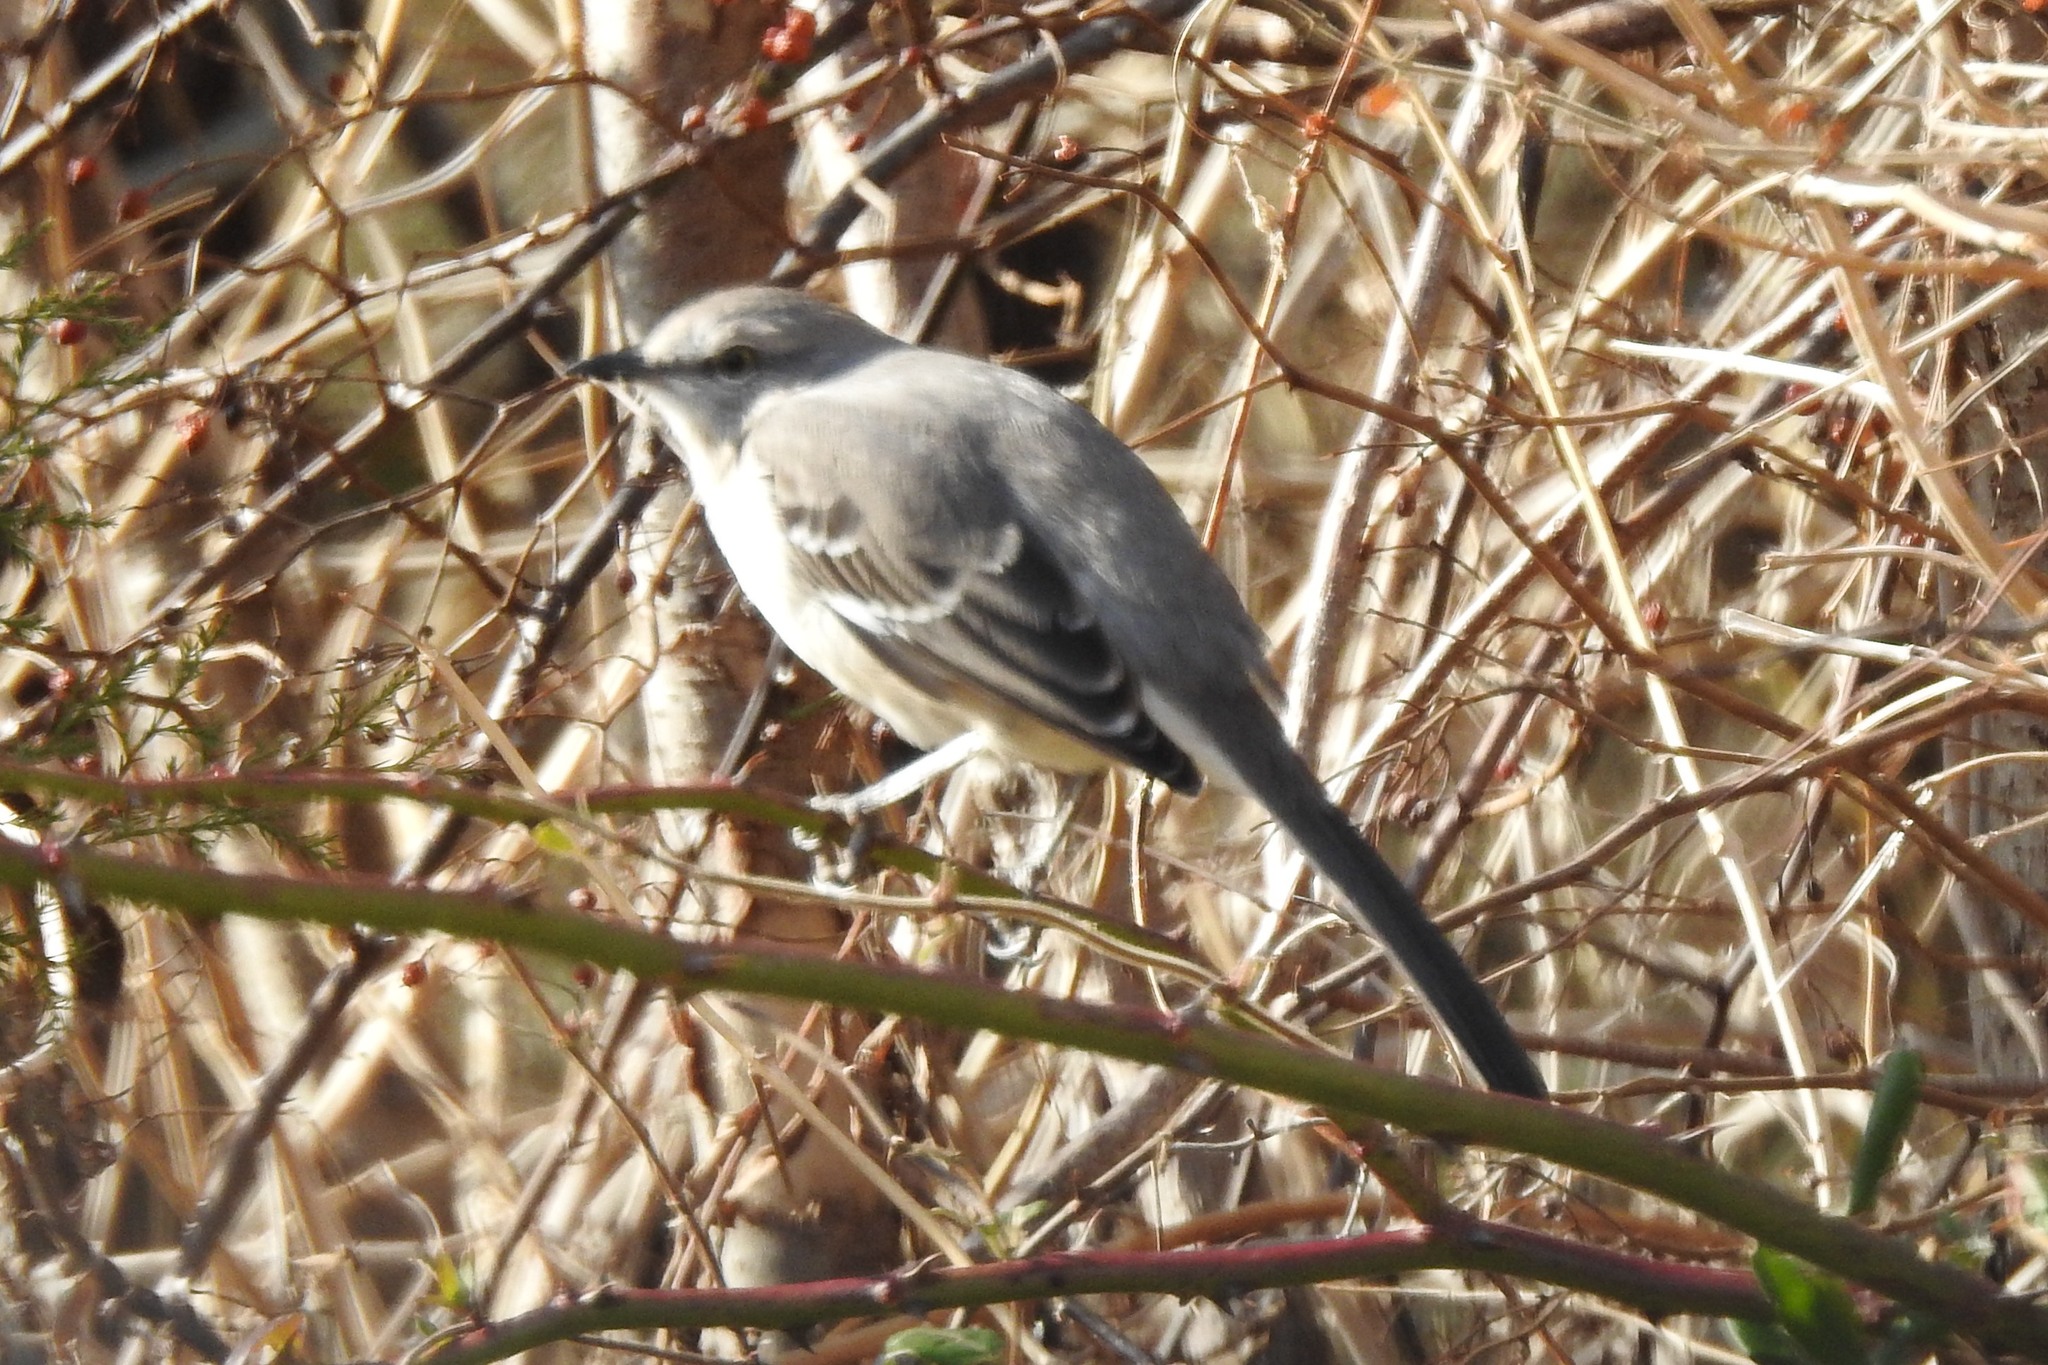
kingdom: Animalia
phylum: Chordata
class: Aves
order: Passeriformes
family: Mimidae
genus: Mimus
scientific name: Mimus polyglottos
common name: Northern mockingbird
